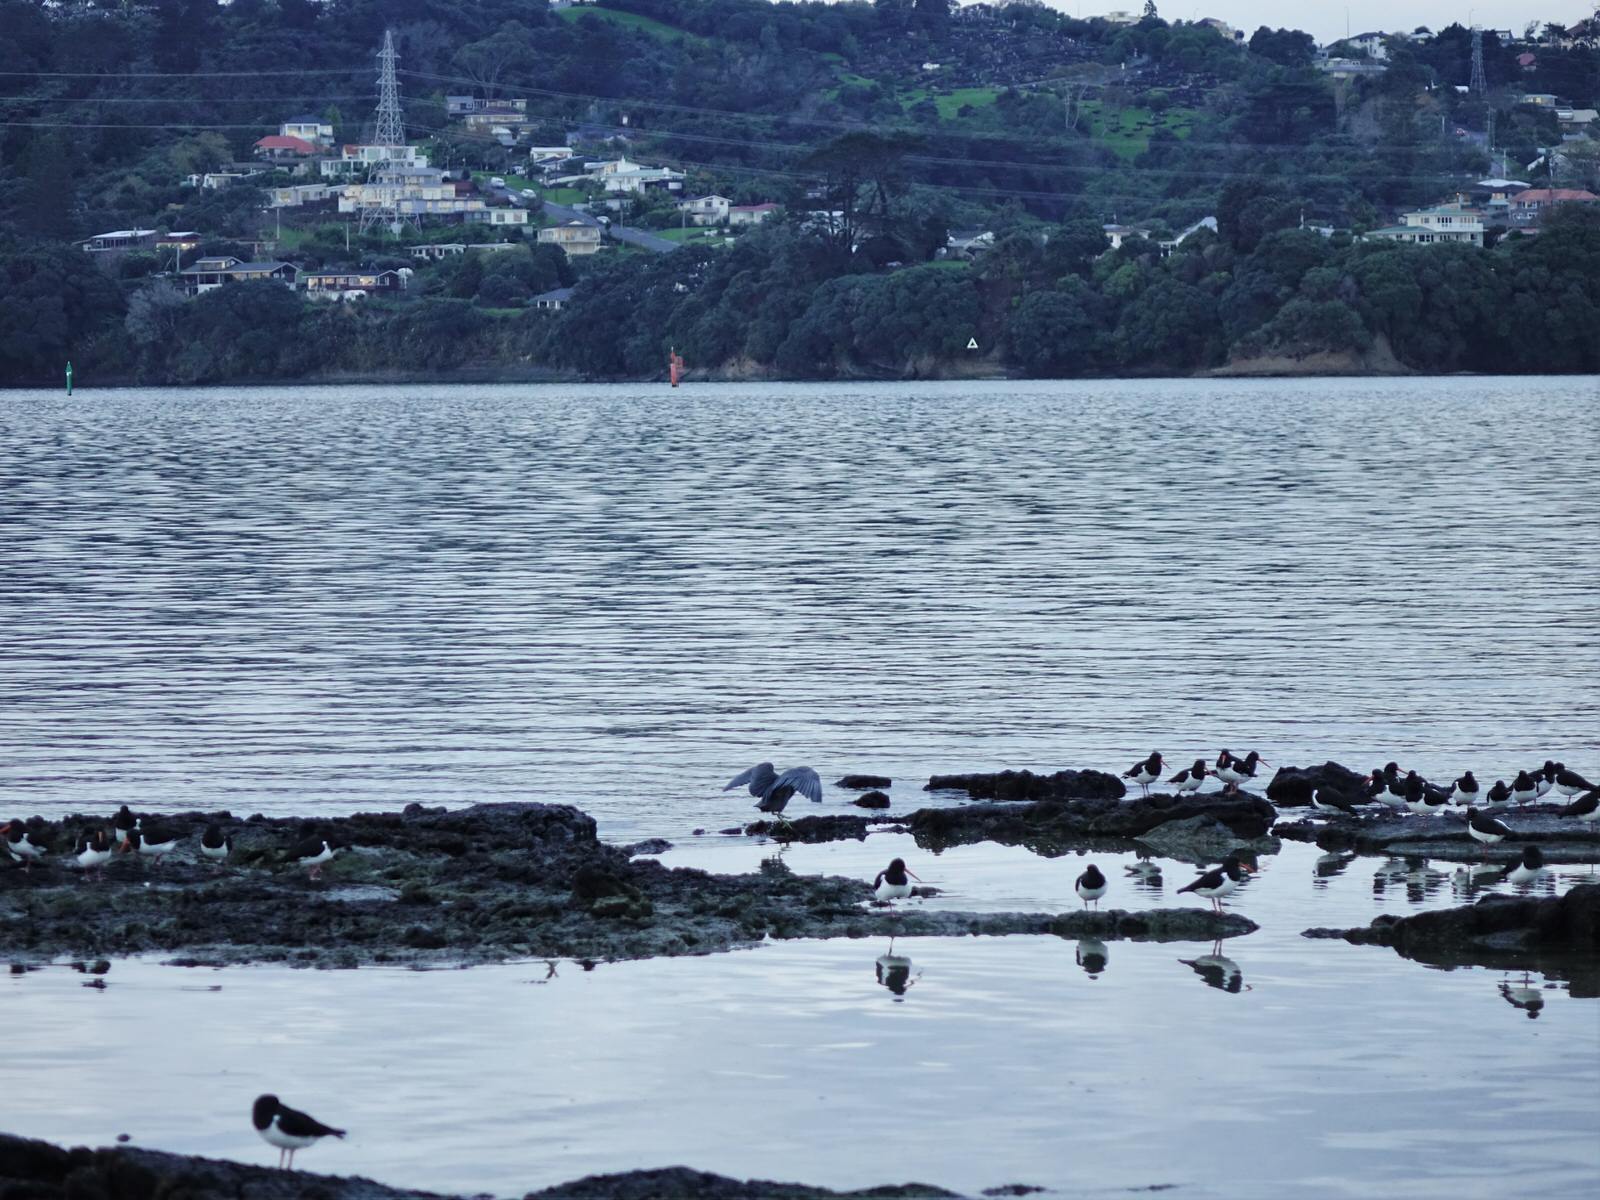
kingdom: Animalia
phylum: Chordata
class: Aves
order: Pelecaniformes
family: Ardeidae
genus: Egretta
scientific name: Egretta sacra
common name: Pacific reef heron
